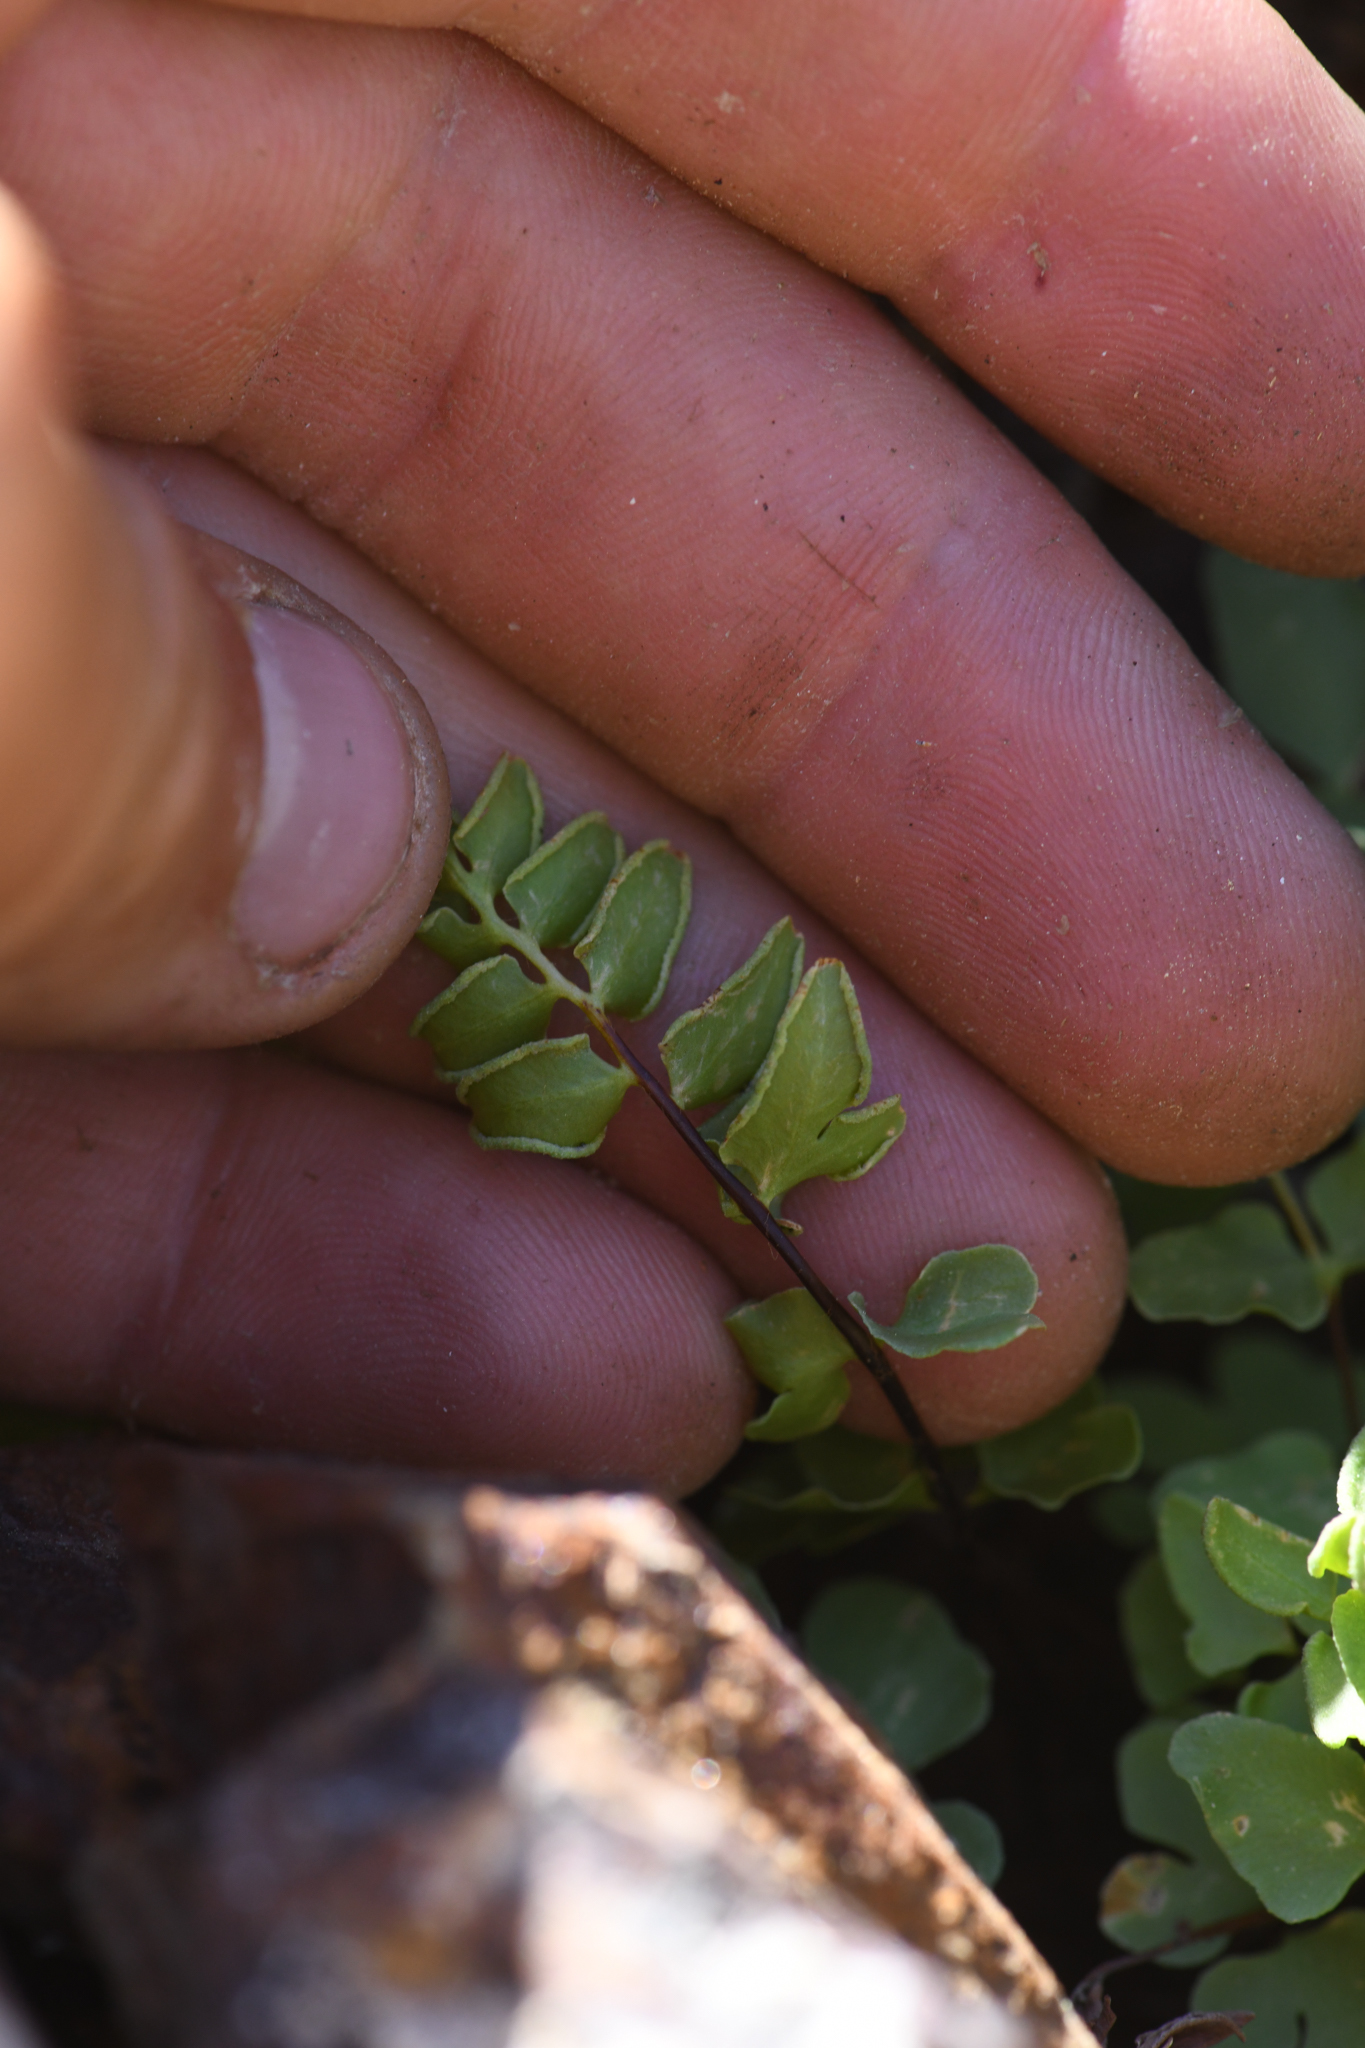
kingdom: Plantae
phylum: Tracheophyta
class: Polypodiopsida
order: Polypodiales
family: Pteridaceae
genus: Pellaea
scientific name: Pellaea breweri
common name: Brewer's cliffbrake
